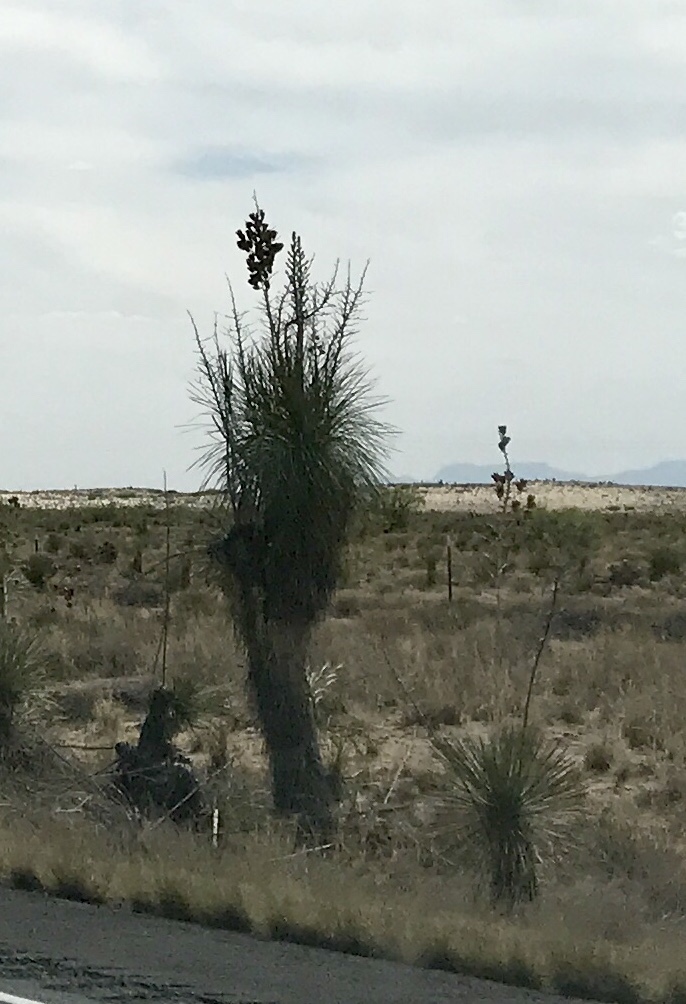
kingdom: Plantae
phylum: Tracheophyta
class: Liliopsida
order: Asparagales
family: Asparagaceae
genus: Yucca
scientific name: Yucca elata
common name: Palmella
